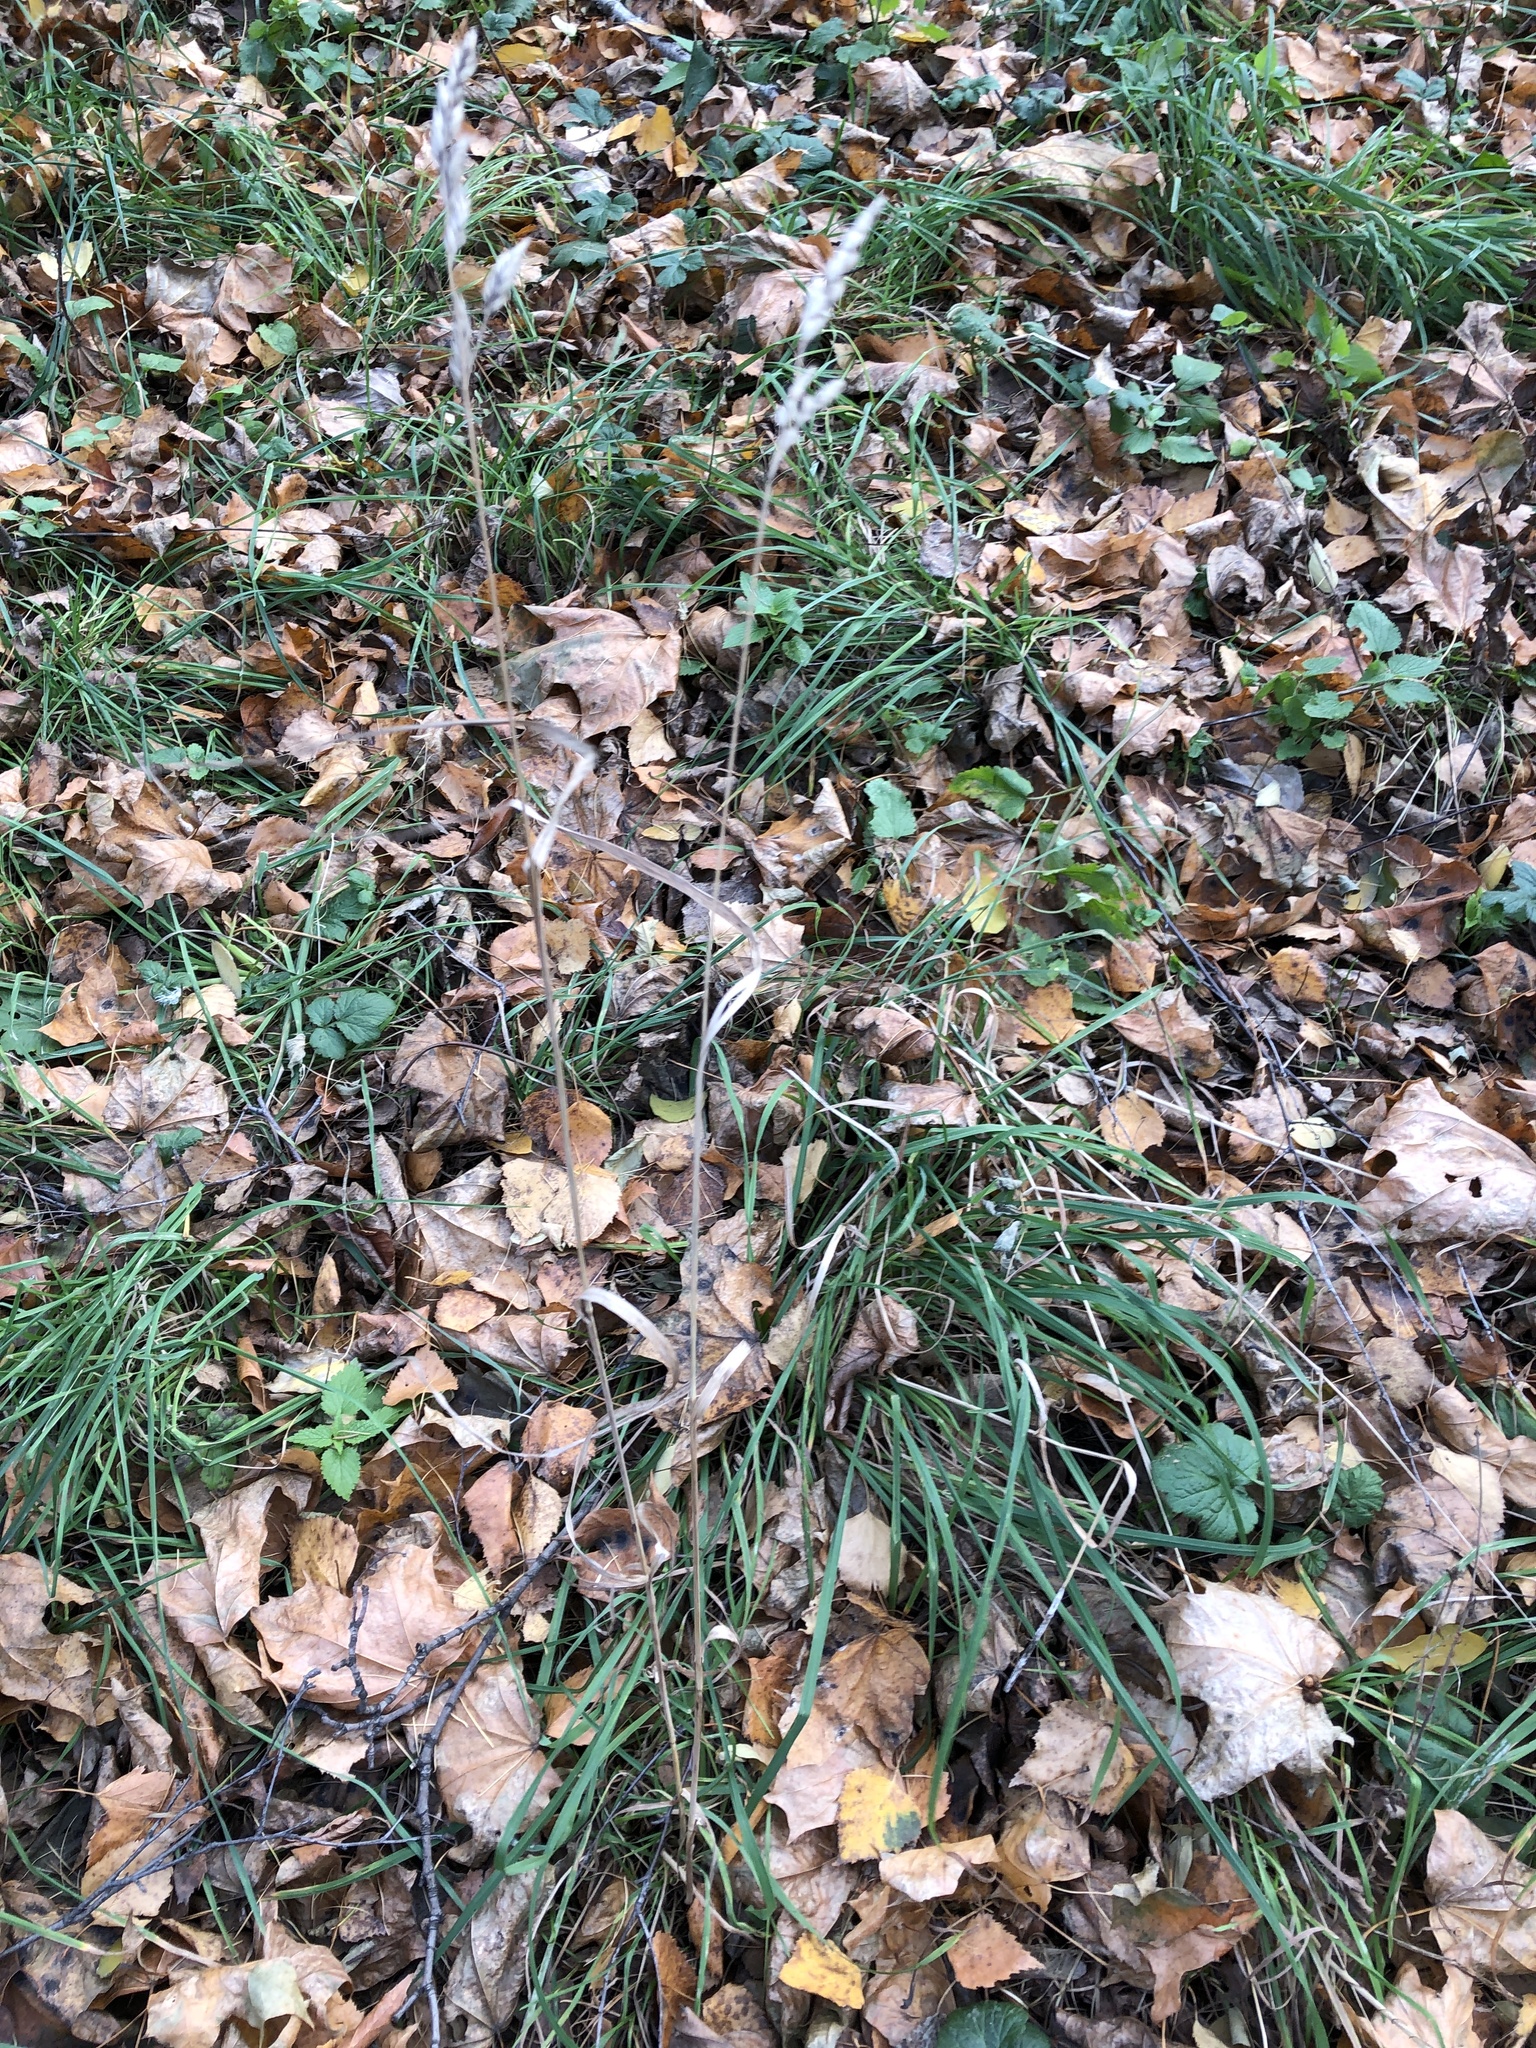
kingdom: Plantae
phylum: Tracheophyta
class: Liliopsida
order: Poales
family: Poaceae
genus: Dactylis
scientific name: Dactylis glomerata
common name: Orchardgrass
